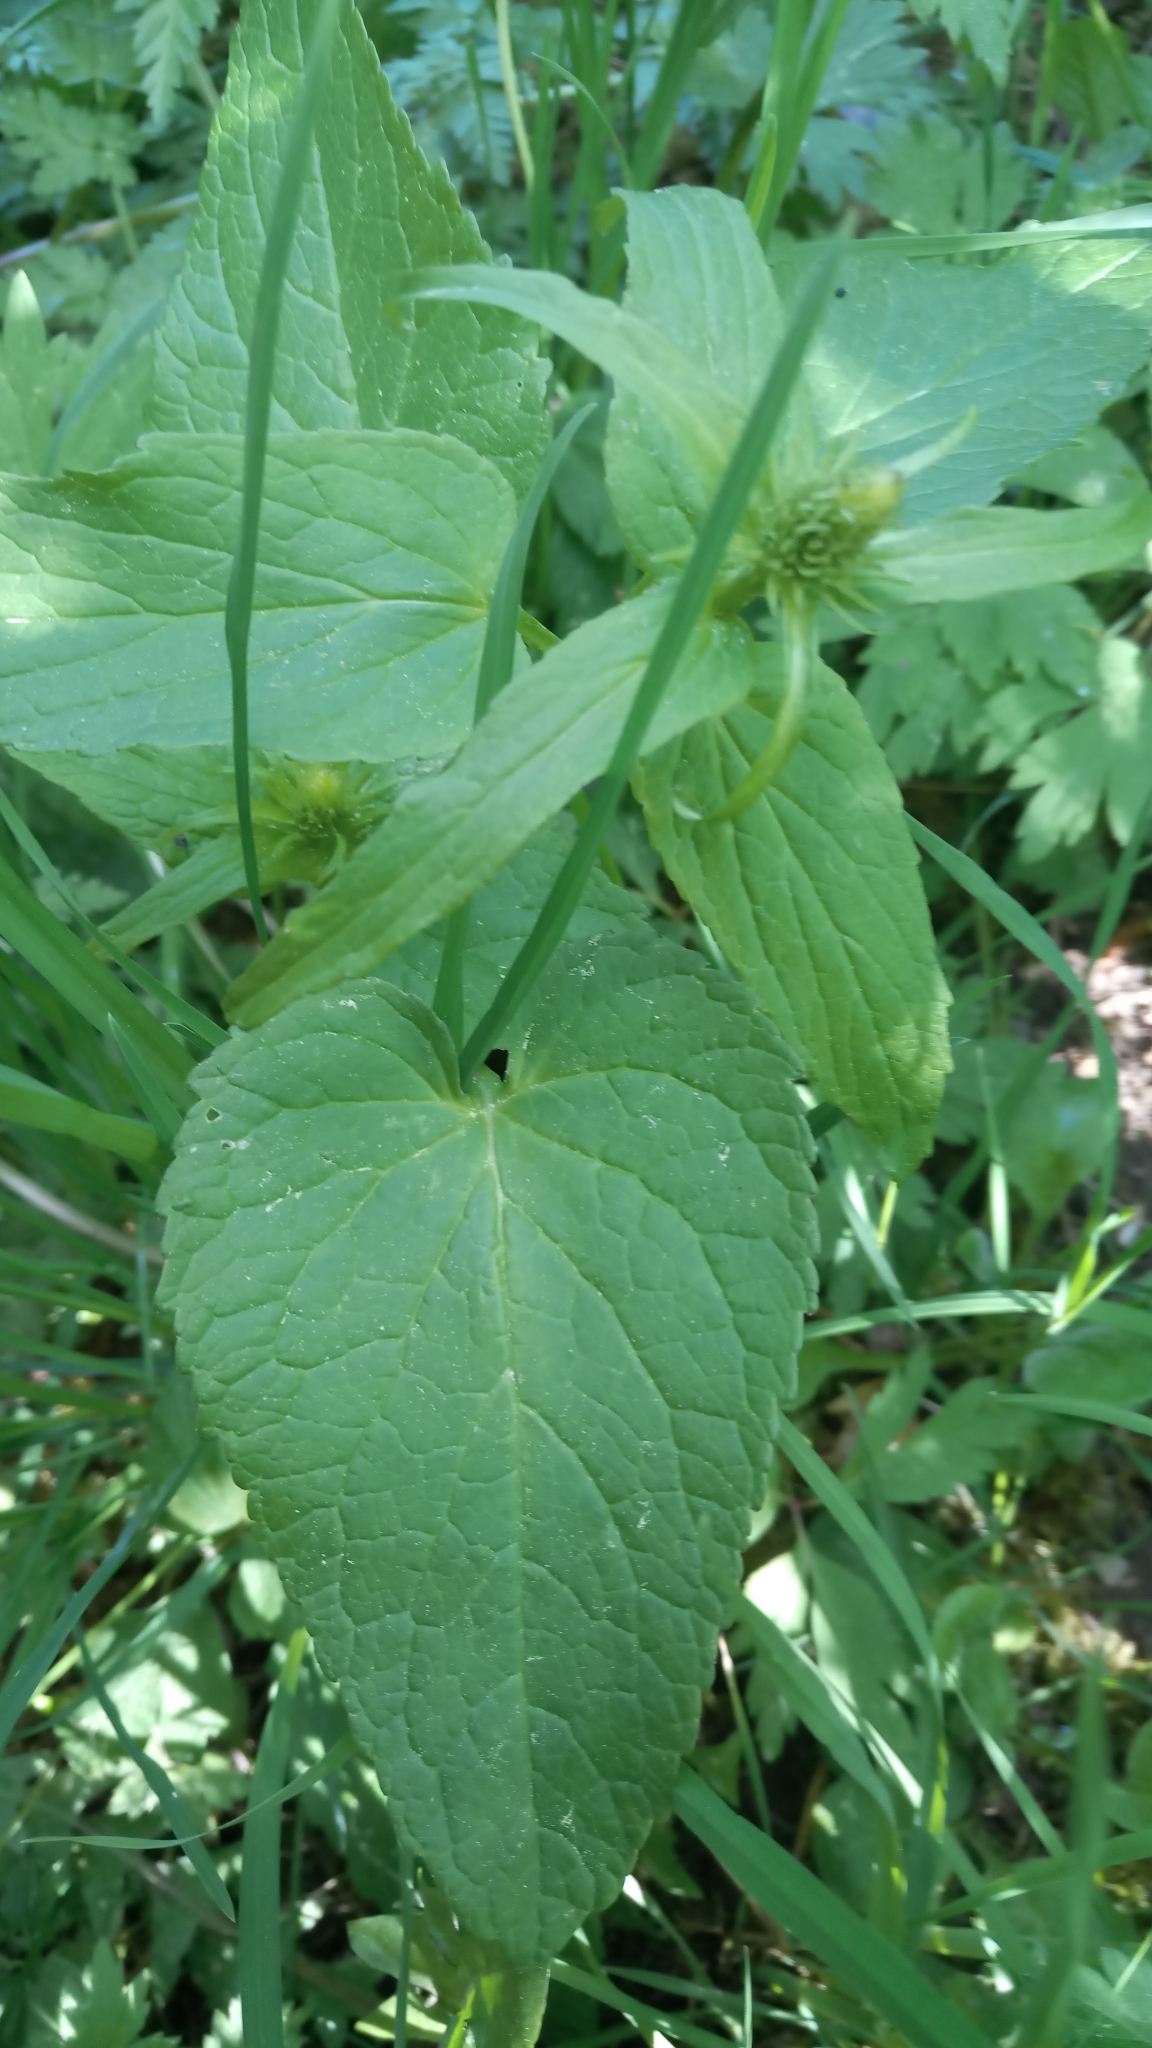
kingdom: Plantae
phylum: Tracheophyta
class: Magnoliopsida
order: Asterales
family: Campanulaceae
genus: Phyteuma
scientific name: Phyteuma spicatum
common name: Spiked rampion
